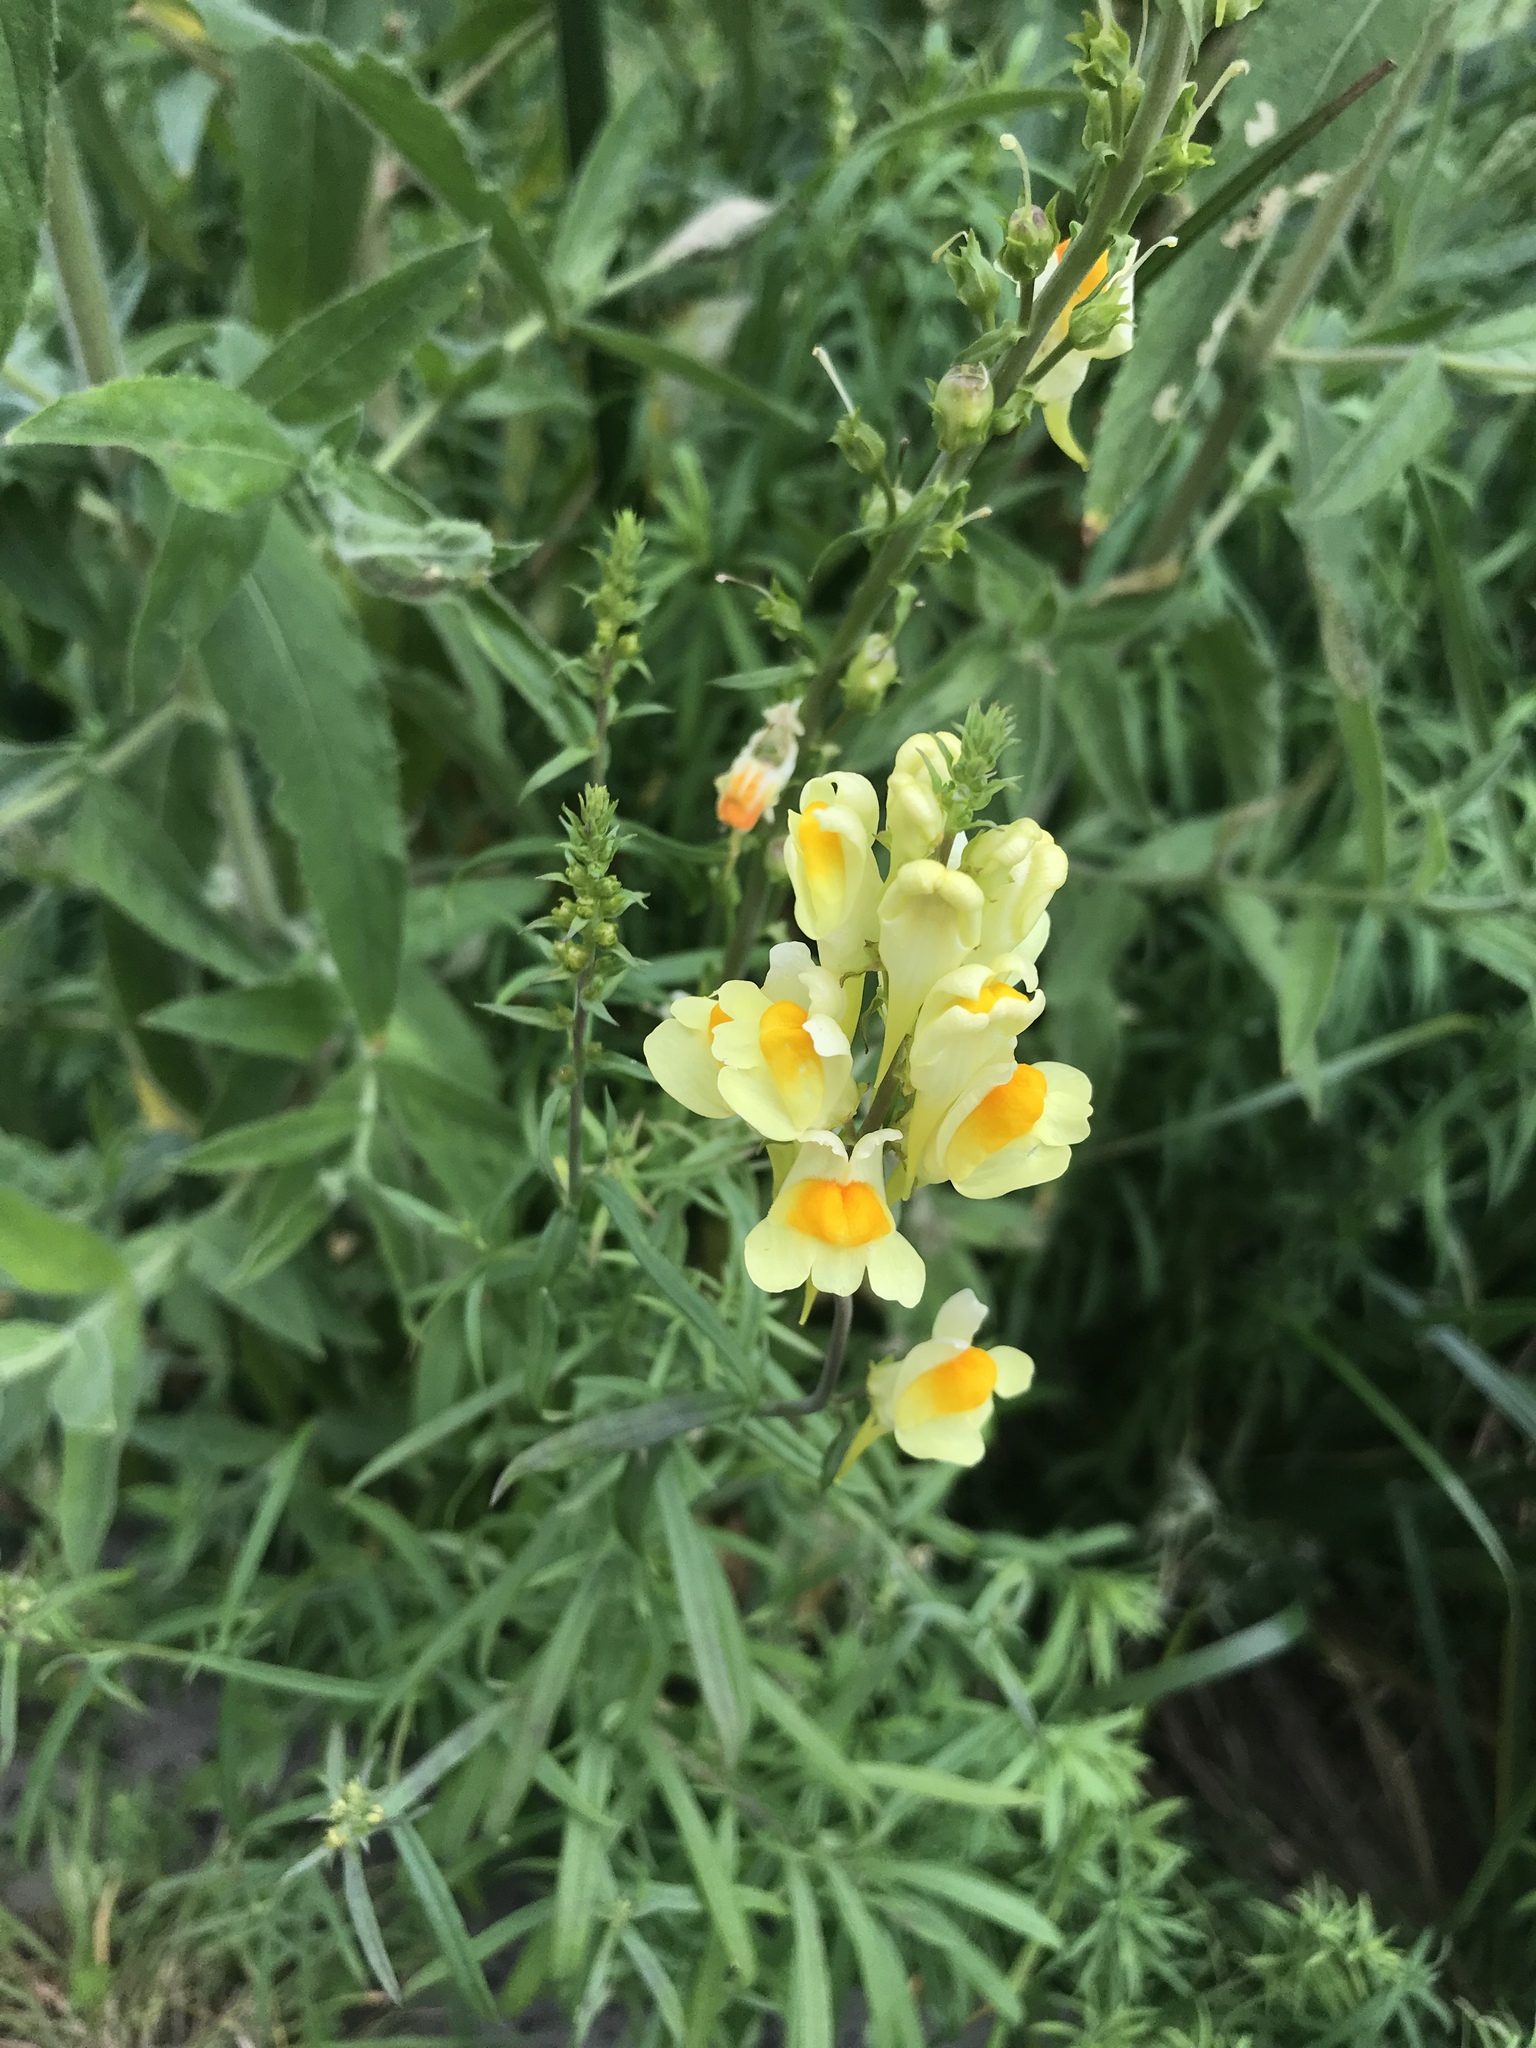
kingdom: Plantae
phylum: Tracheophyta
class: Magnoliopsida
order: Lamiales
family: Plantaginaceae
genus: Linaria
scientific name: Linaria vulgaris
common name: Butter and eggs
